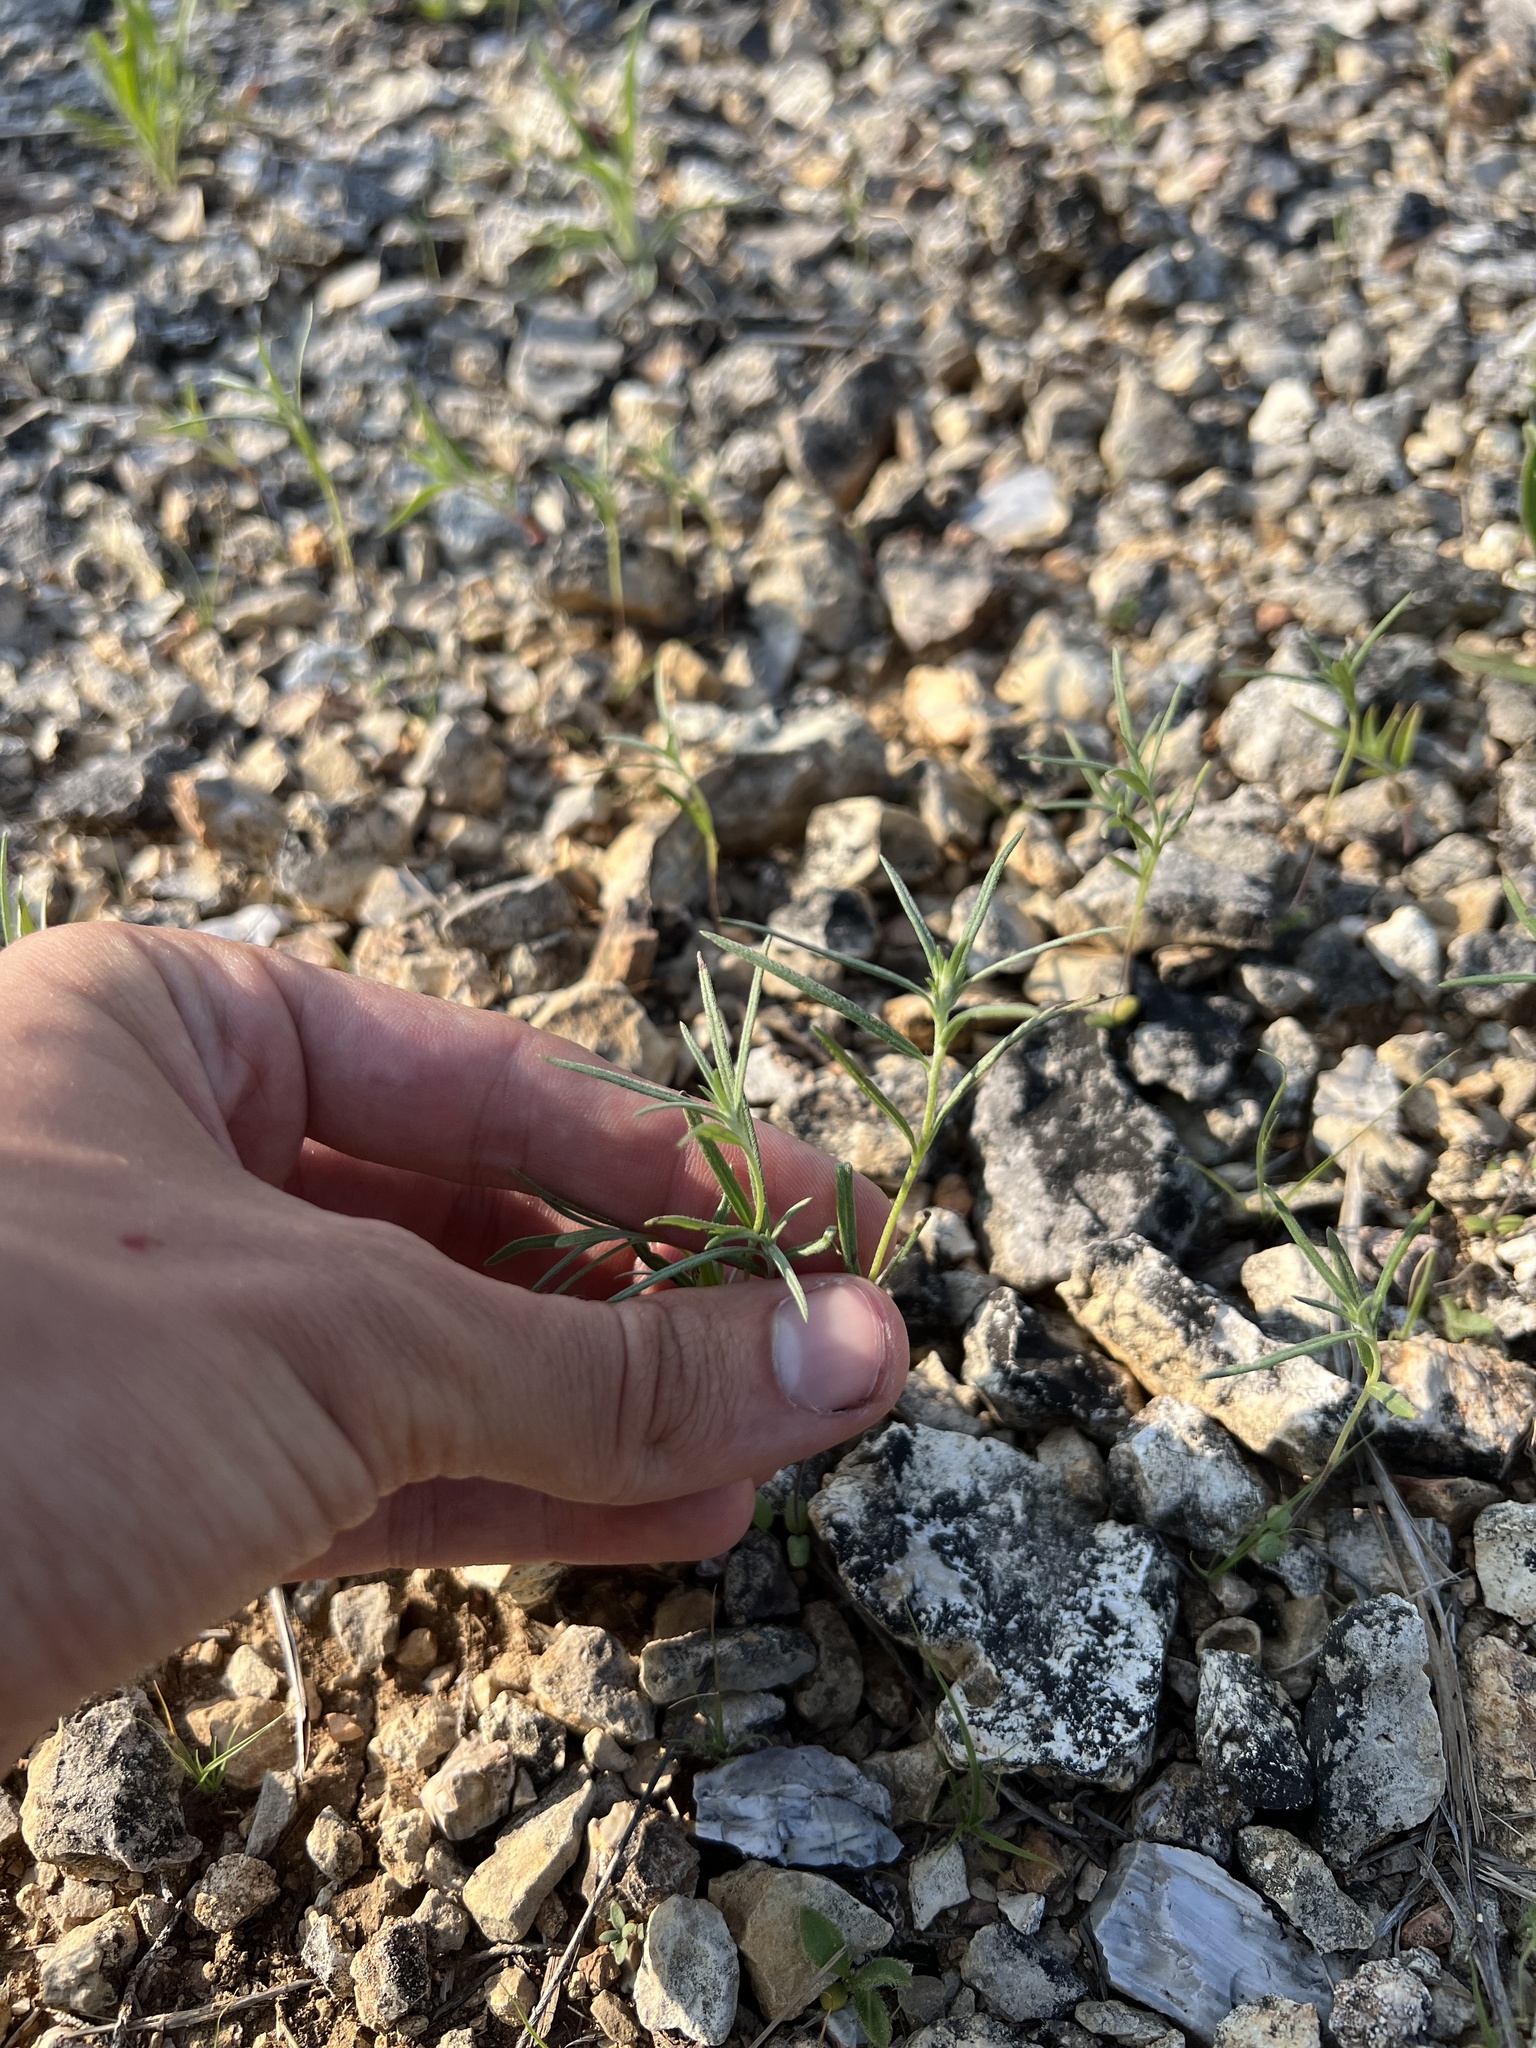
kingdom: Plantae
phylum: Tracheophyta
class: Magnoliopsida
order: Boraginales
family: Heliotropiaceae
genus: Euploca
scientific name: Euploca tenella
